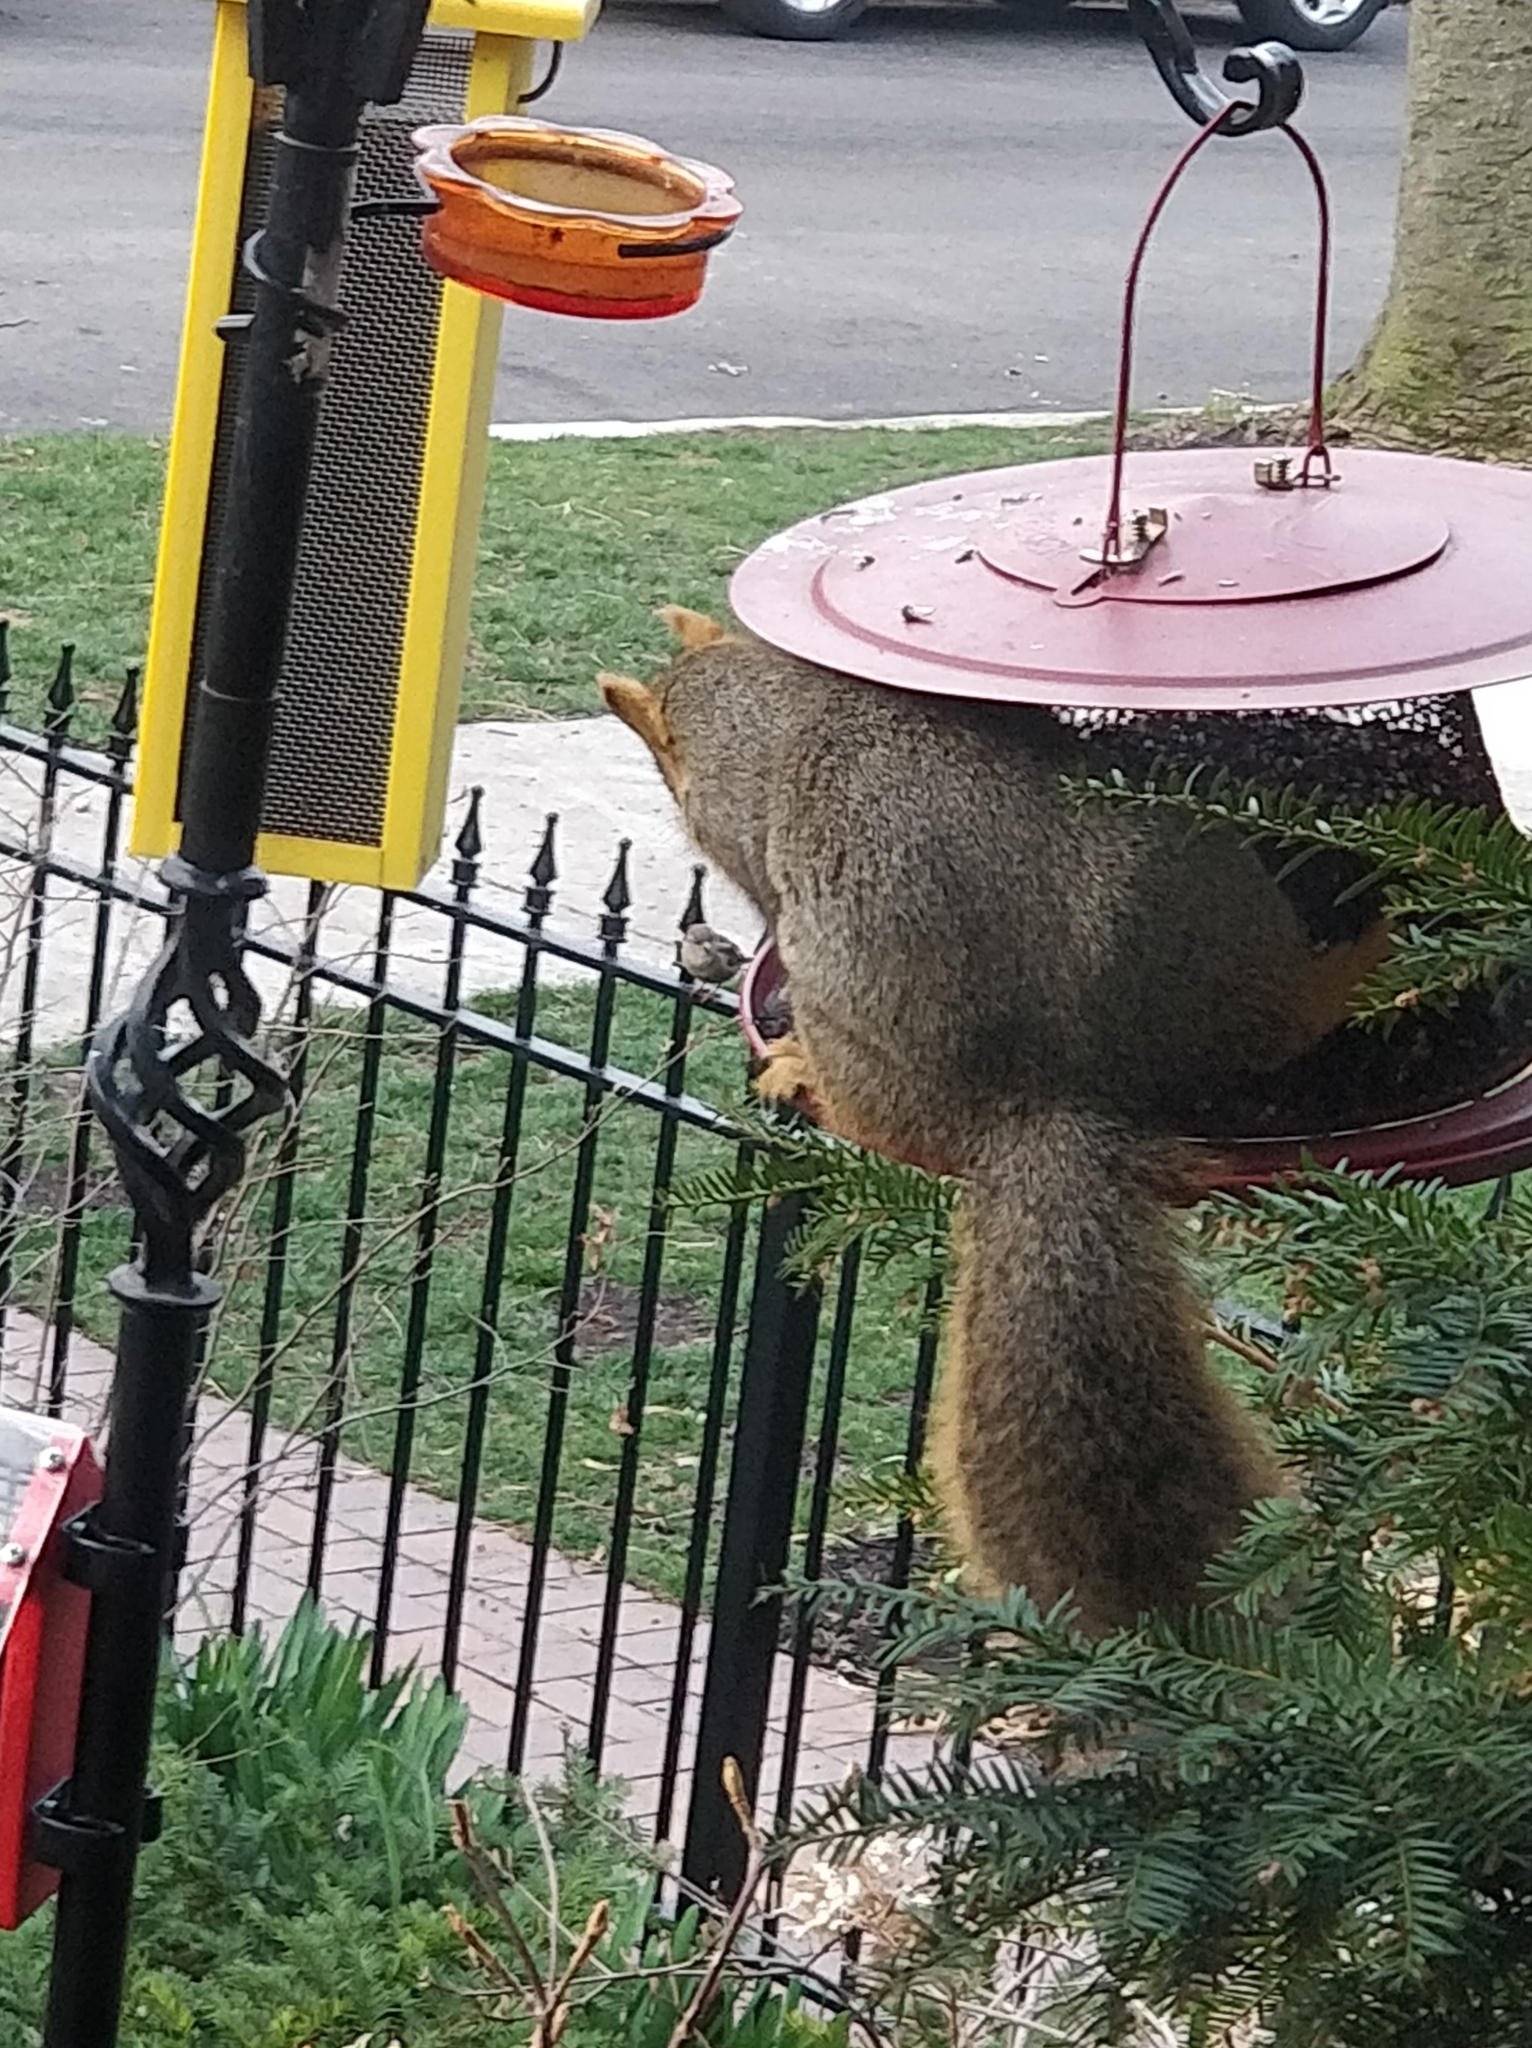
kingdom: Animalia
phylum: Chordata
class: Mammalia
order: Rodentia
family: Sciuridae
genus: Sciurus
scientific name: Sciurus niger
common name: Fox squirrel
